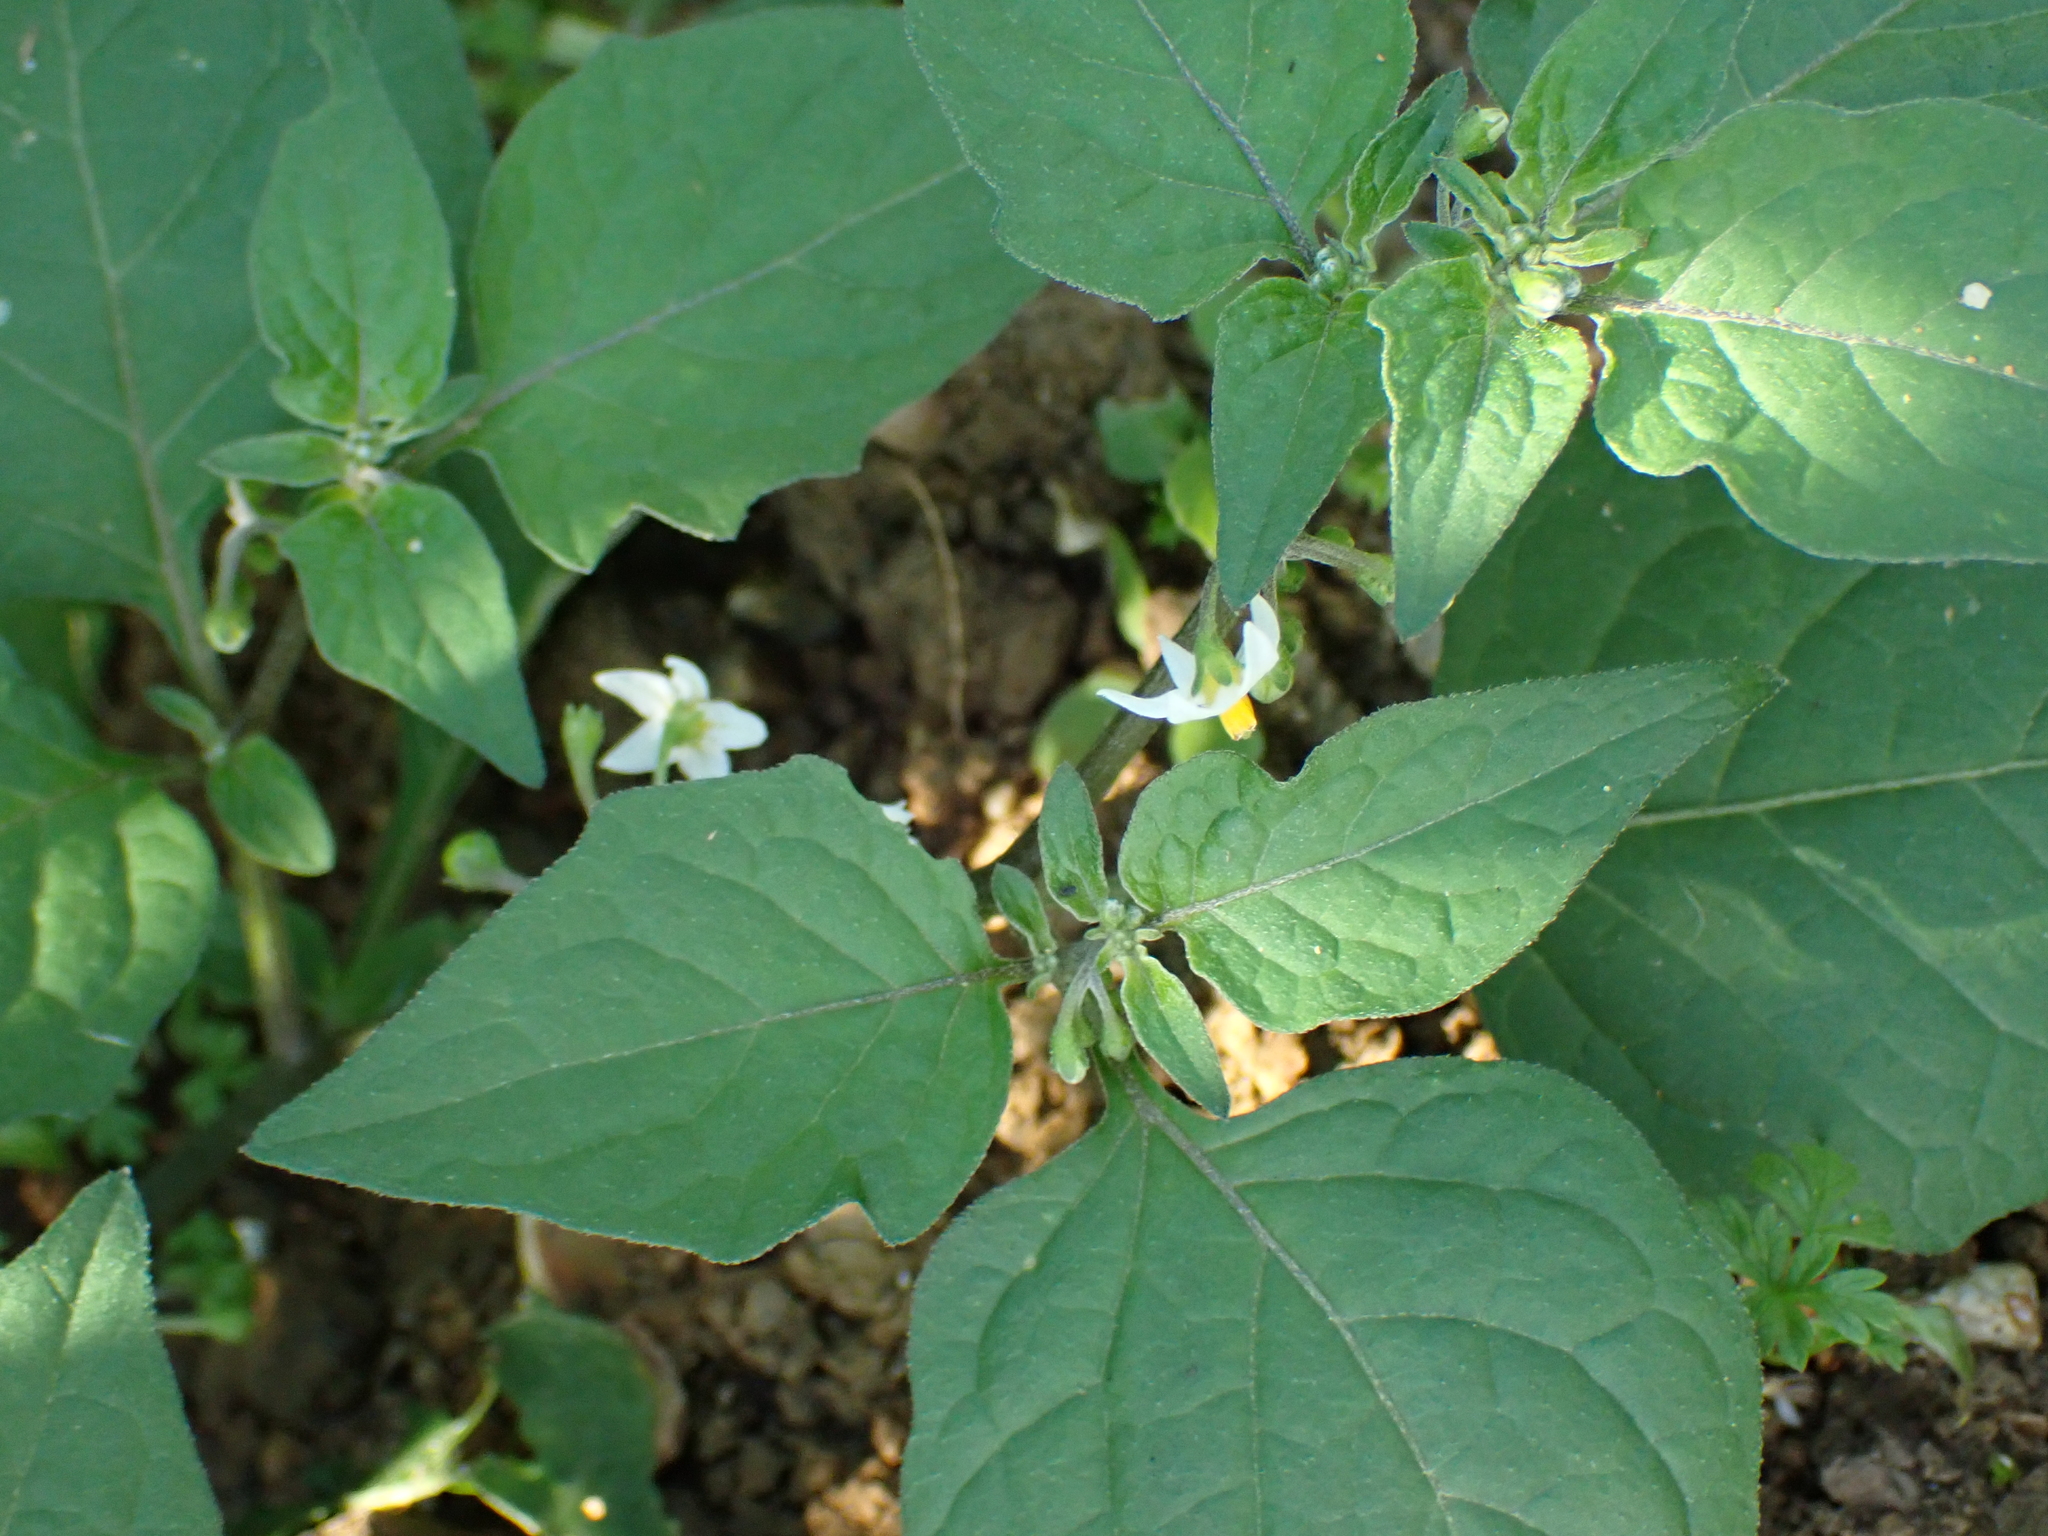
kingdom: Plantae
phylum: Tracheophyta
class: Magnoliopsida
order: Solanales
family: Solanaceae
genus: Solanum
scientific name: Solanum nigrum
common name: Black nightshade
